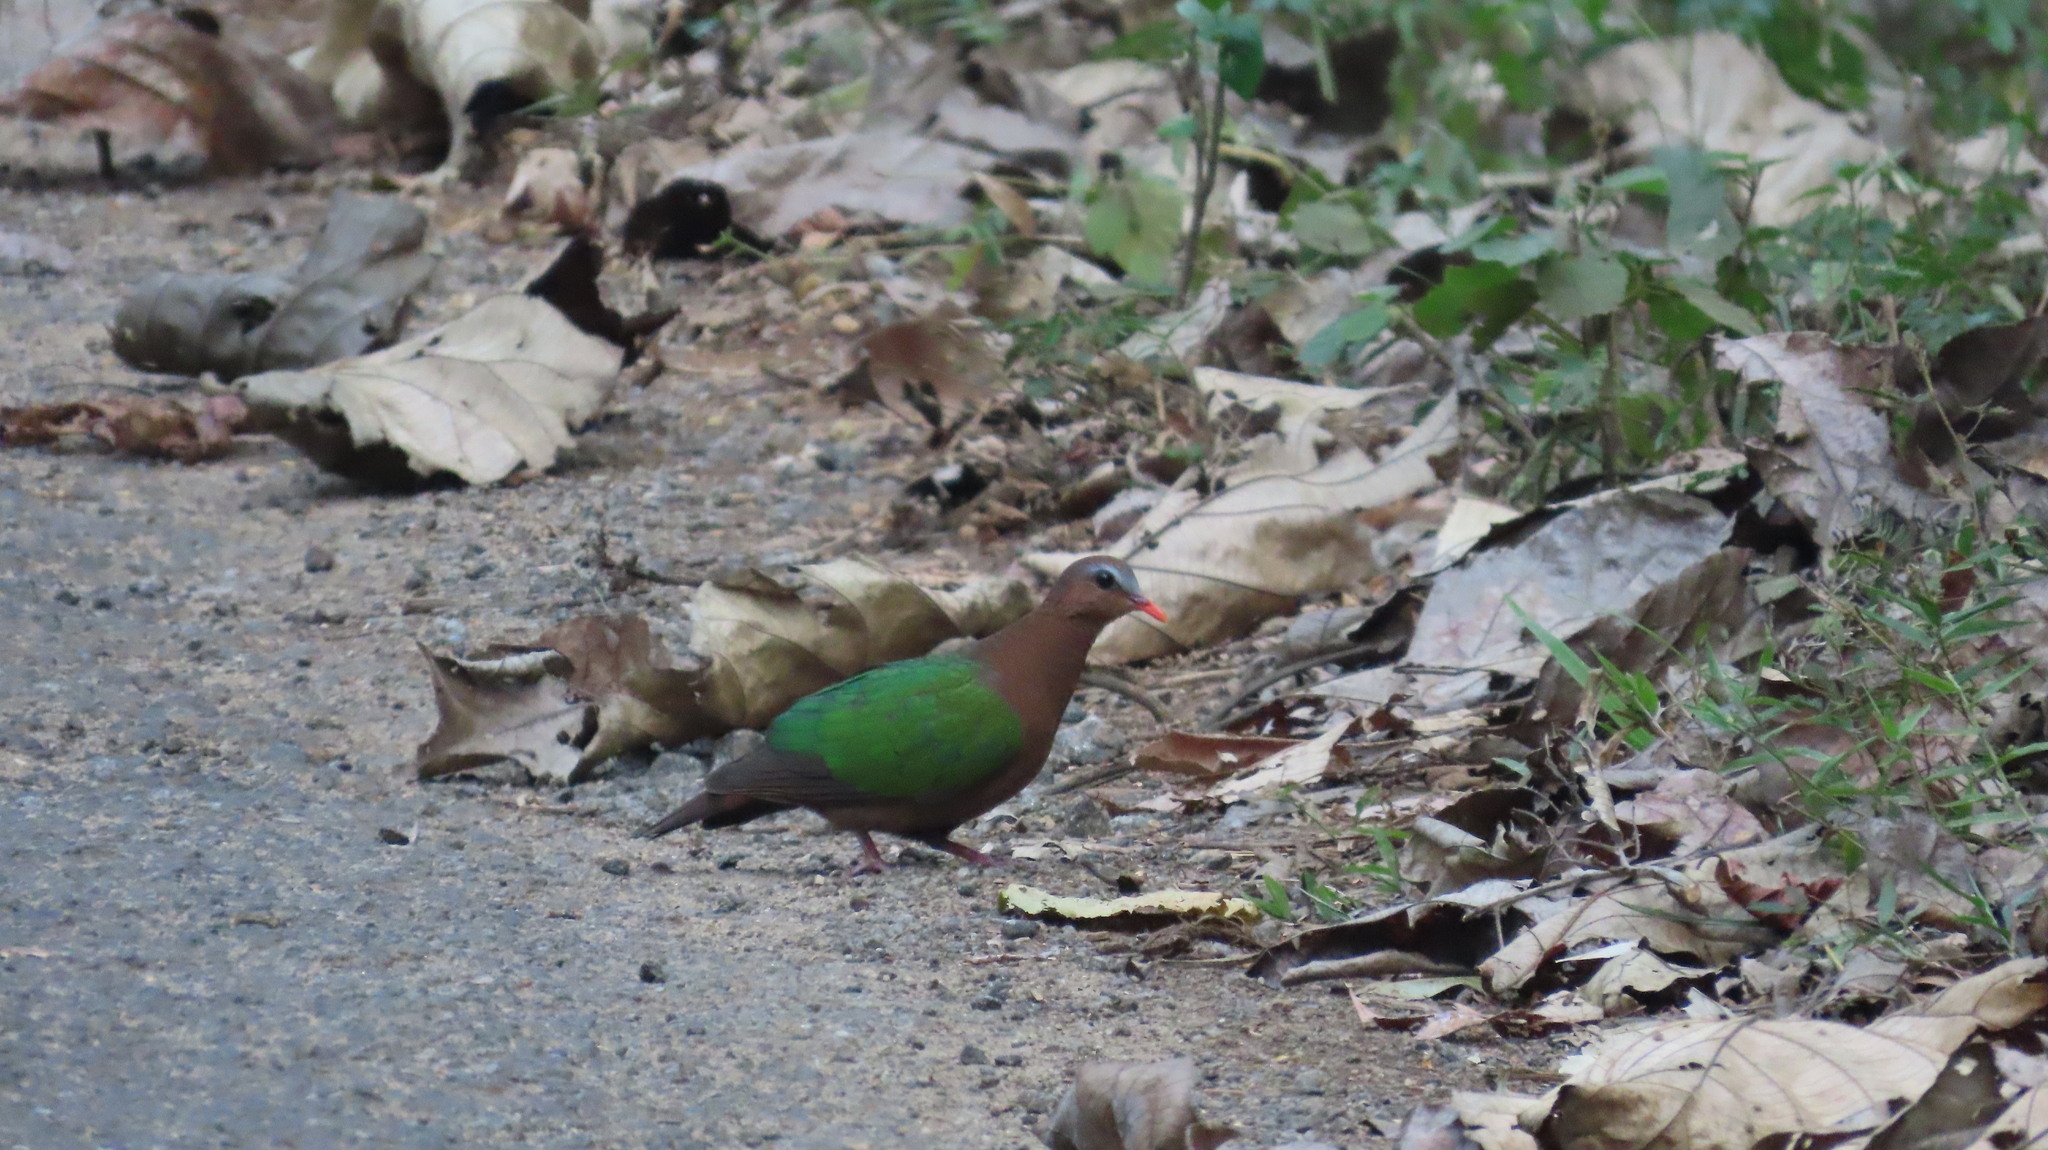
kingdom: Animalia
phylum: Chordata
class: Aves
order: Columbiformes
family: Columbidae
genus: Chalcophaps
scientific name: Chalcophaps indica
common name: Common emerald dove
